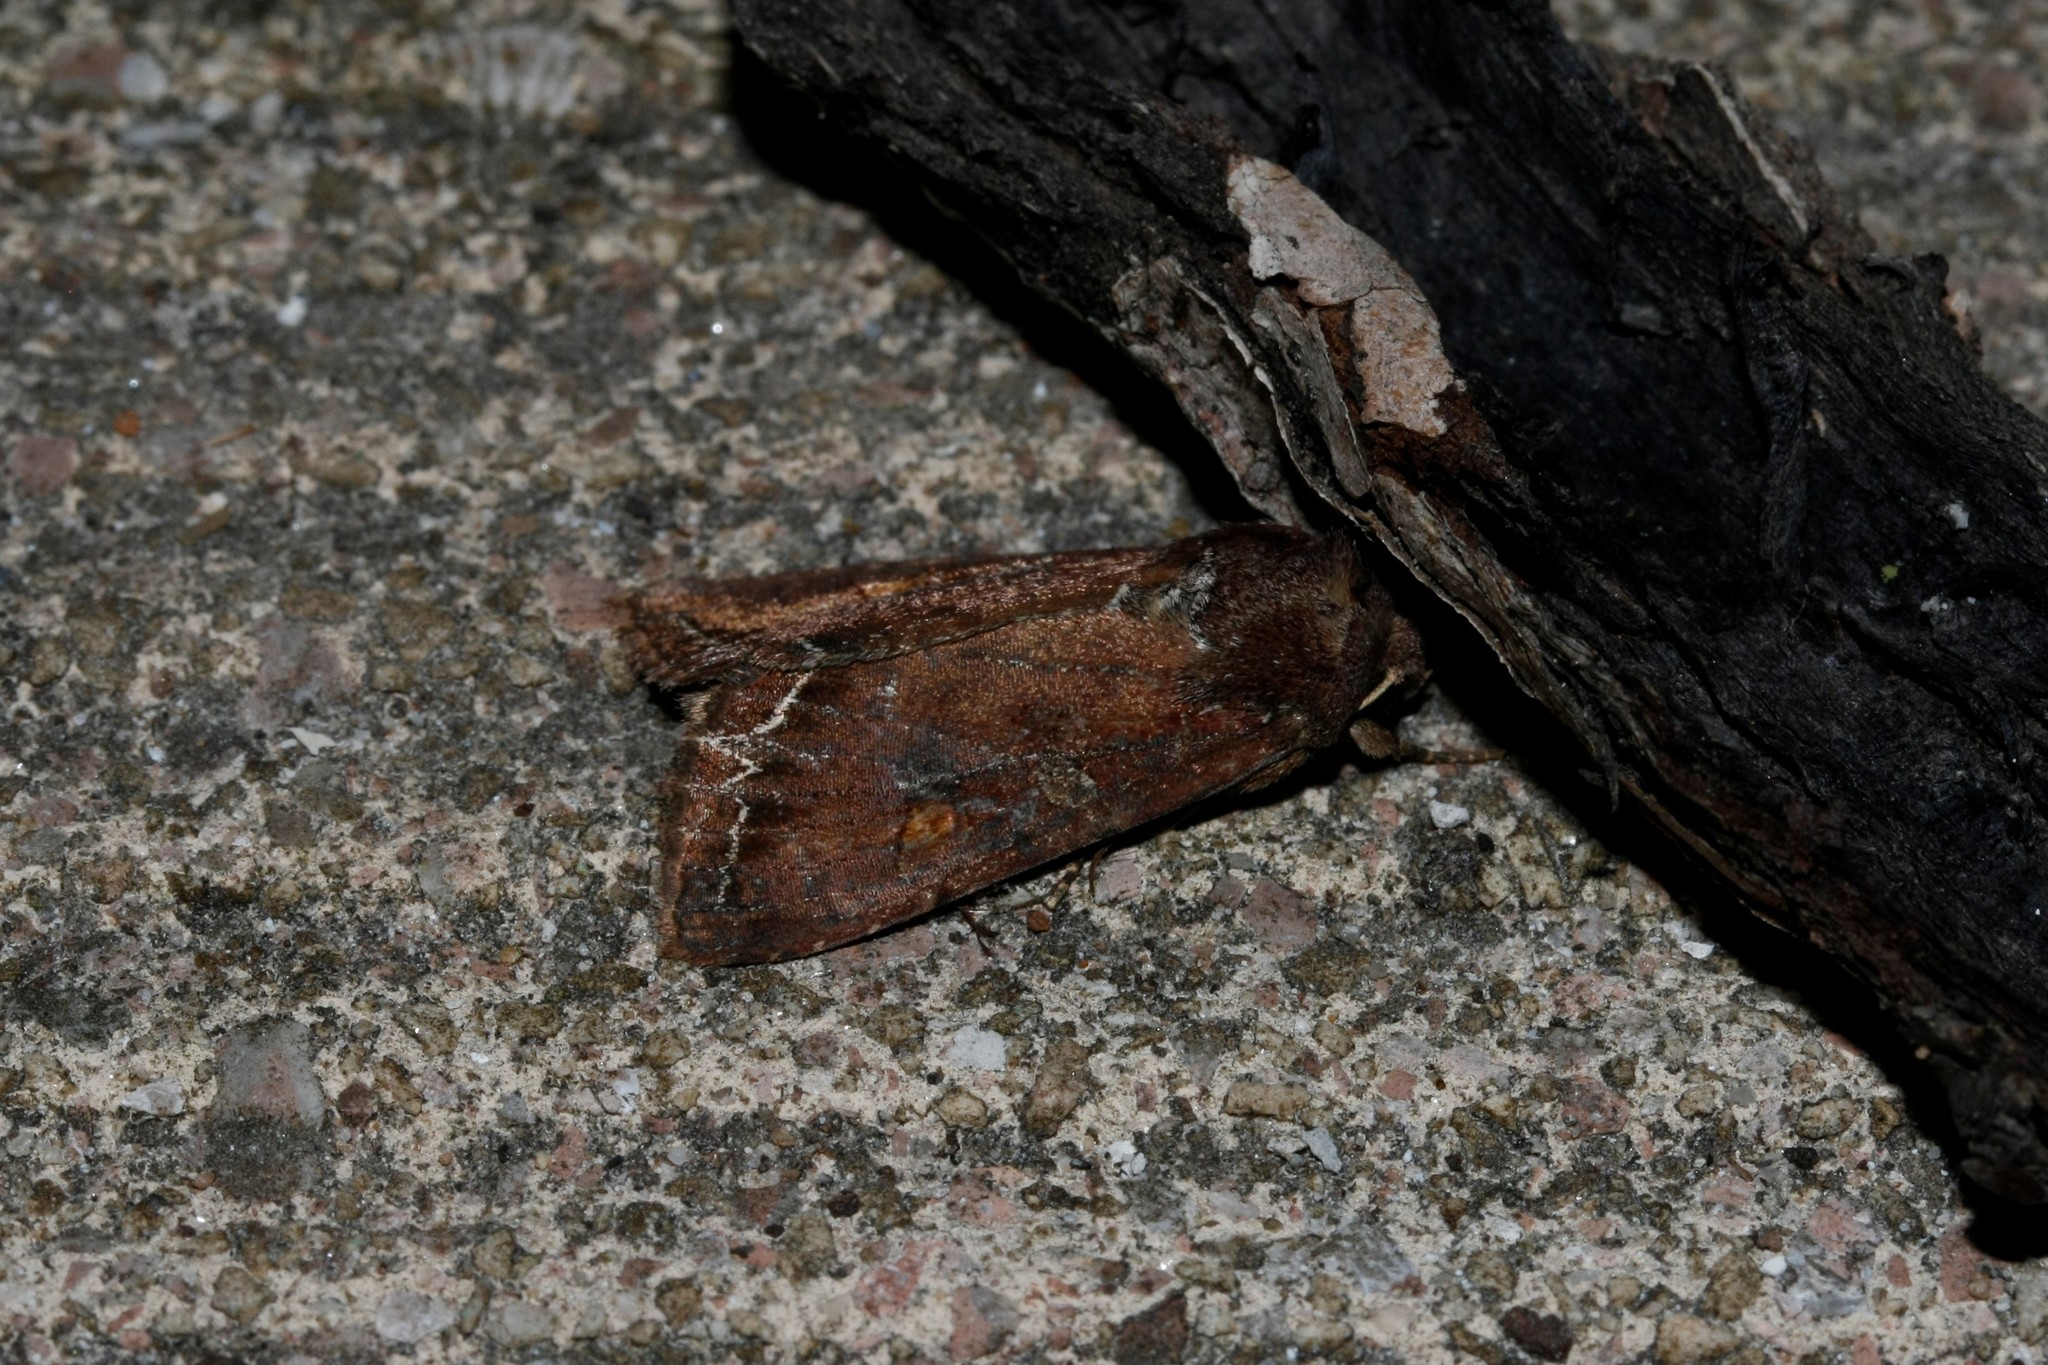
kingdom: Animalia
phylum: Arthropoda
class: Insecta
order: Lepidoptera
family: Noctuidae
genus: Lacanobia
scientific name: Lacanobia oleracea
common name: Bright-line brown-eye
